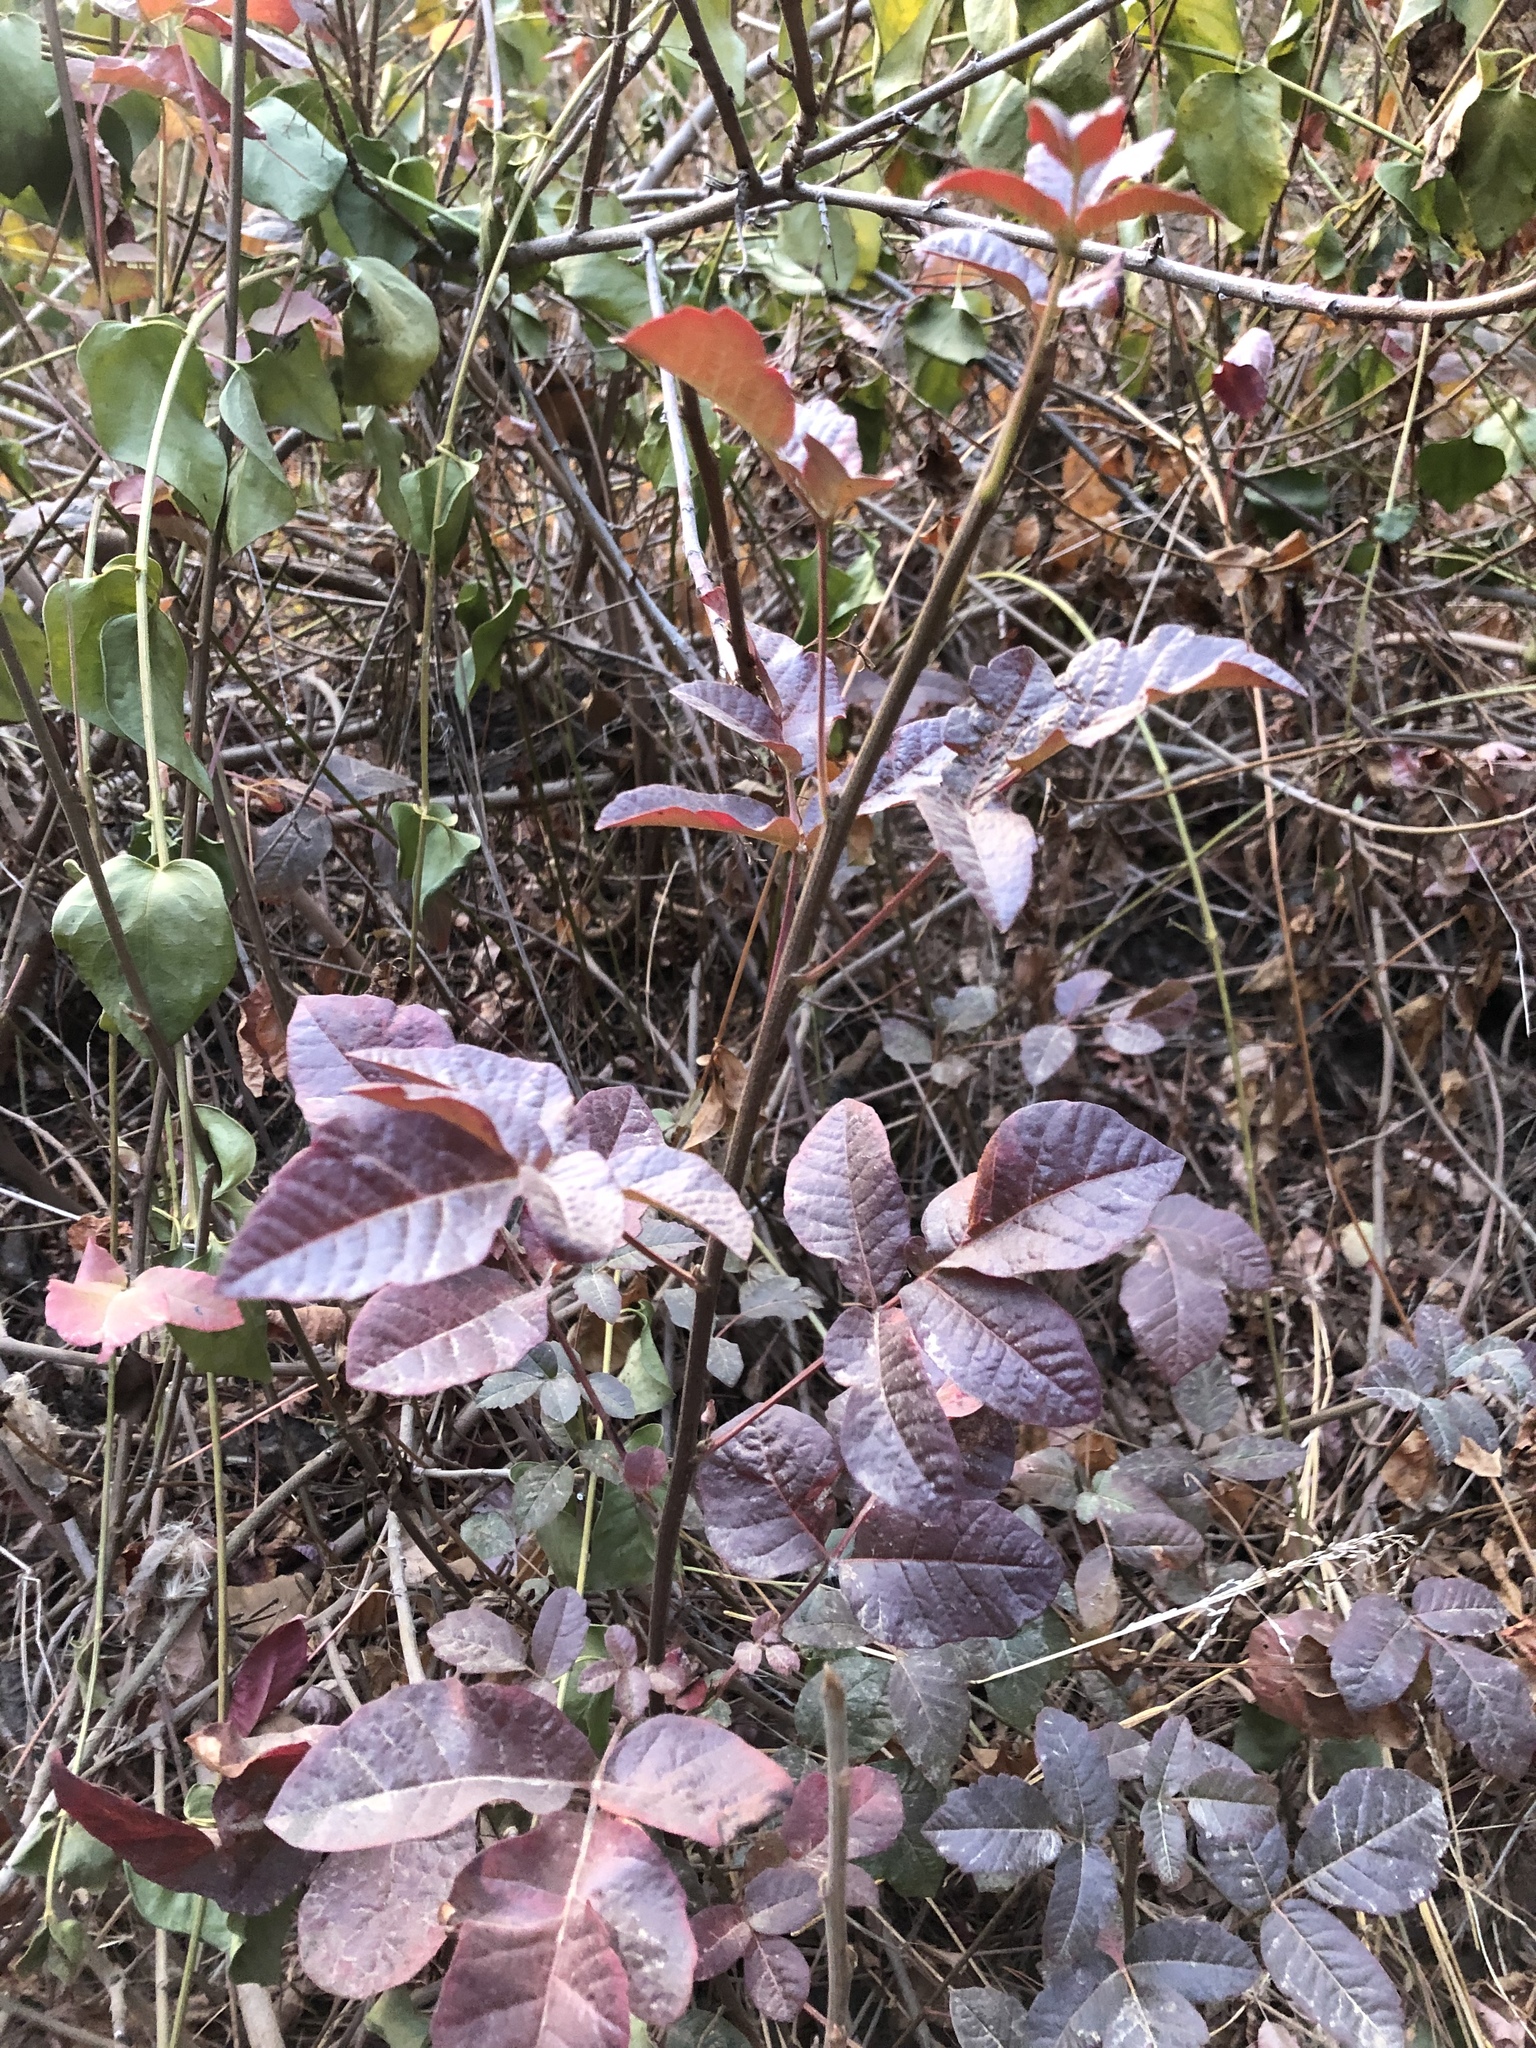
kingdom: Plantae
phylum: Tracheophyta
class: Magnoliopsida
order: Sapindales
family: Anacardiaceae
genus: Toxicodendron
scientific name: Toxicodendron diversilobum
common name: Pacific poison-oak
